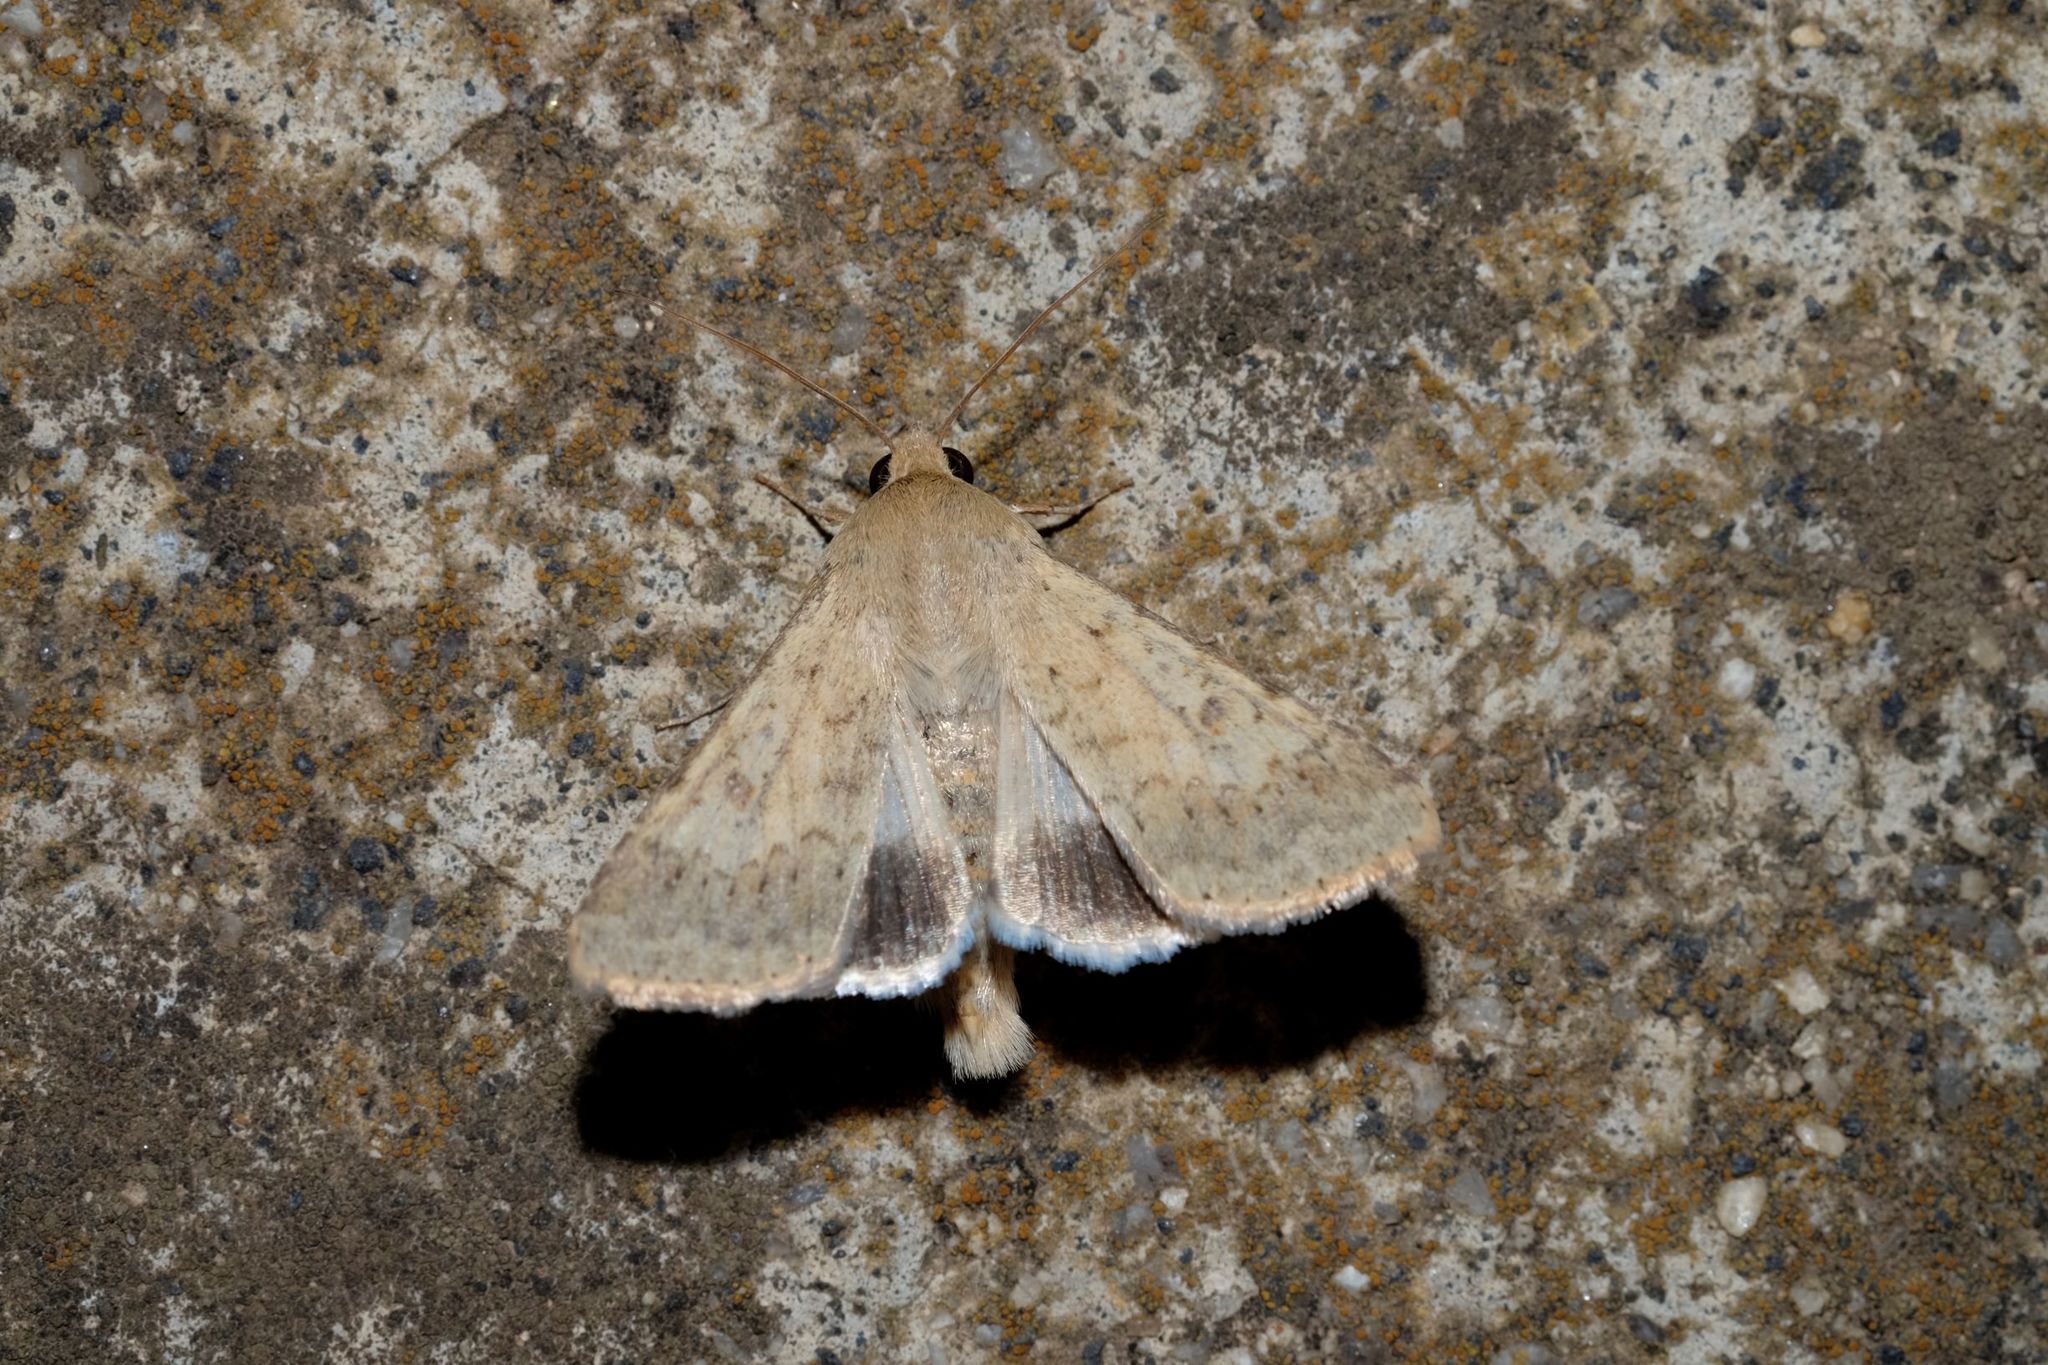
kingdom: Animalia
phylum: Arthropoda
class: Insecta
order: Lepidoptera
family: Noctuidae
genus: Helicoverpa
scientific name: Helicoverpa punctigera
